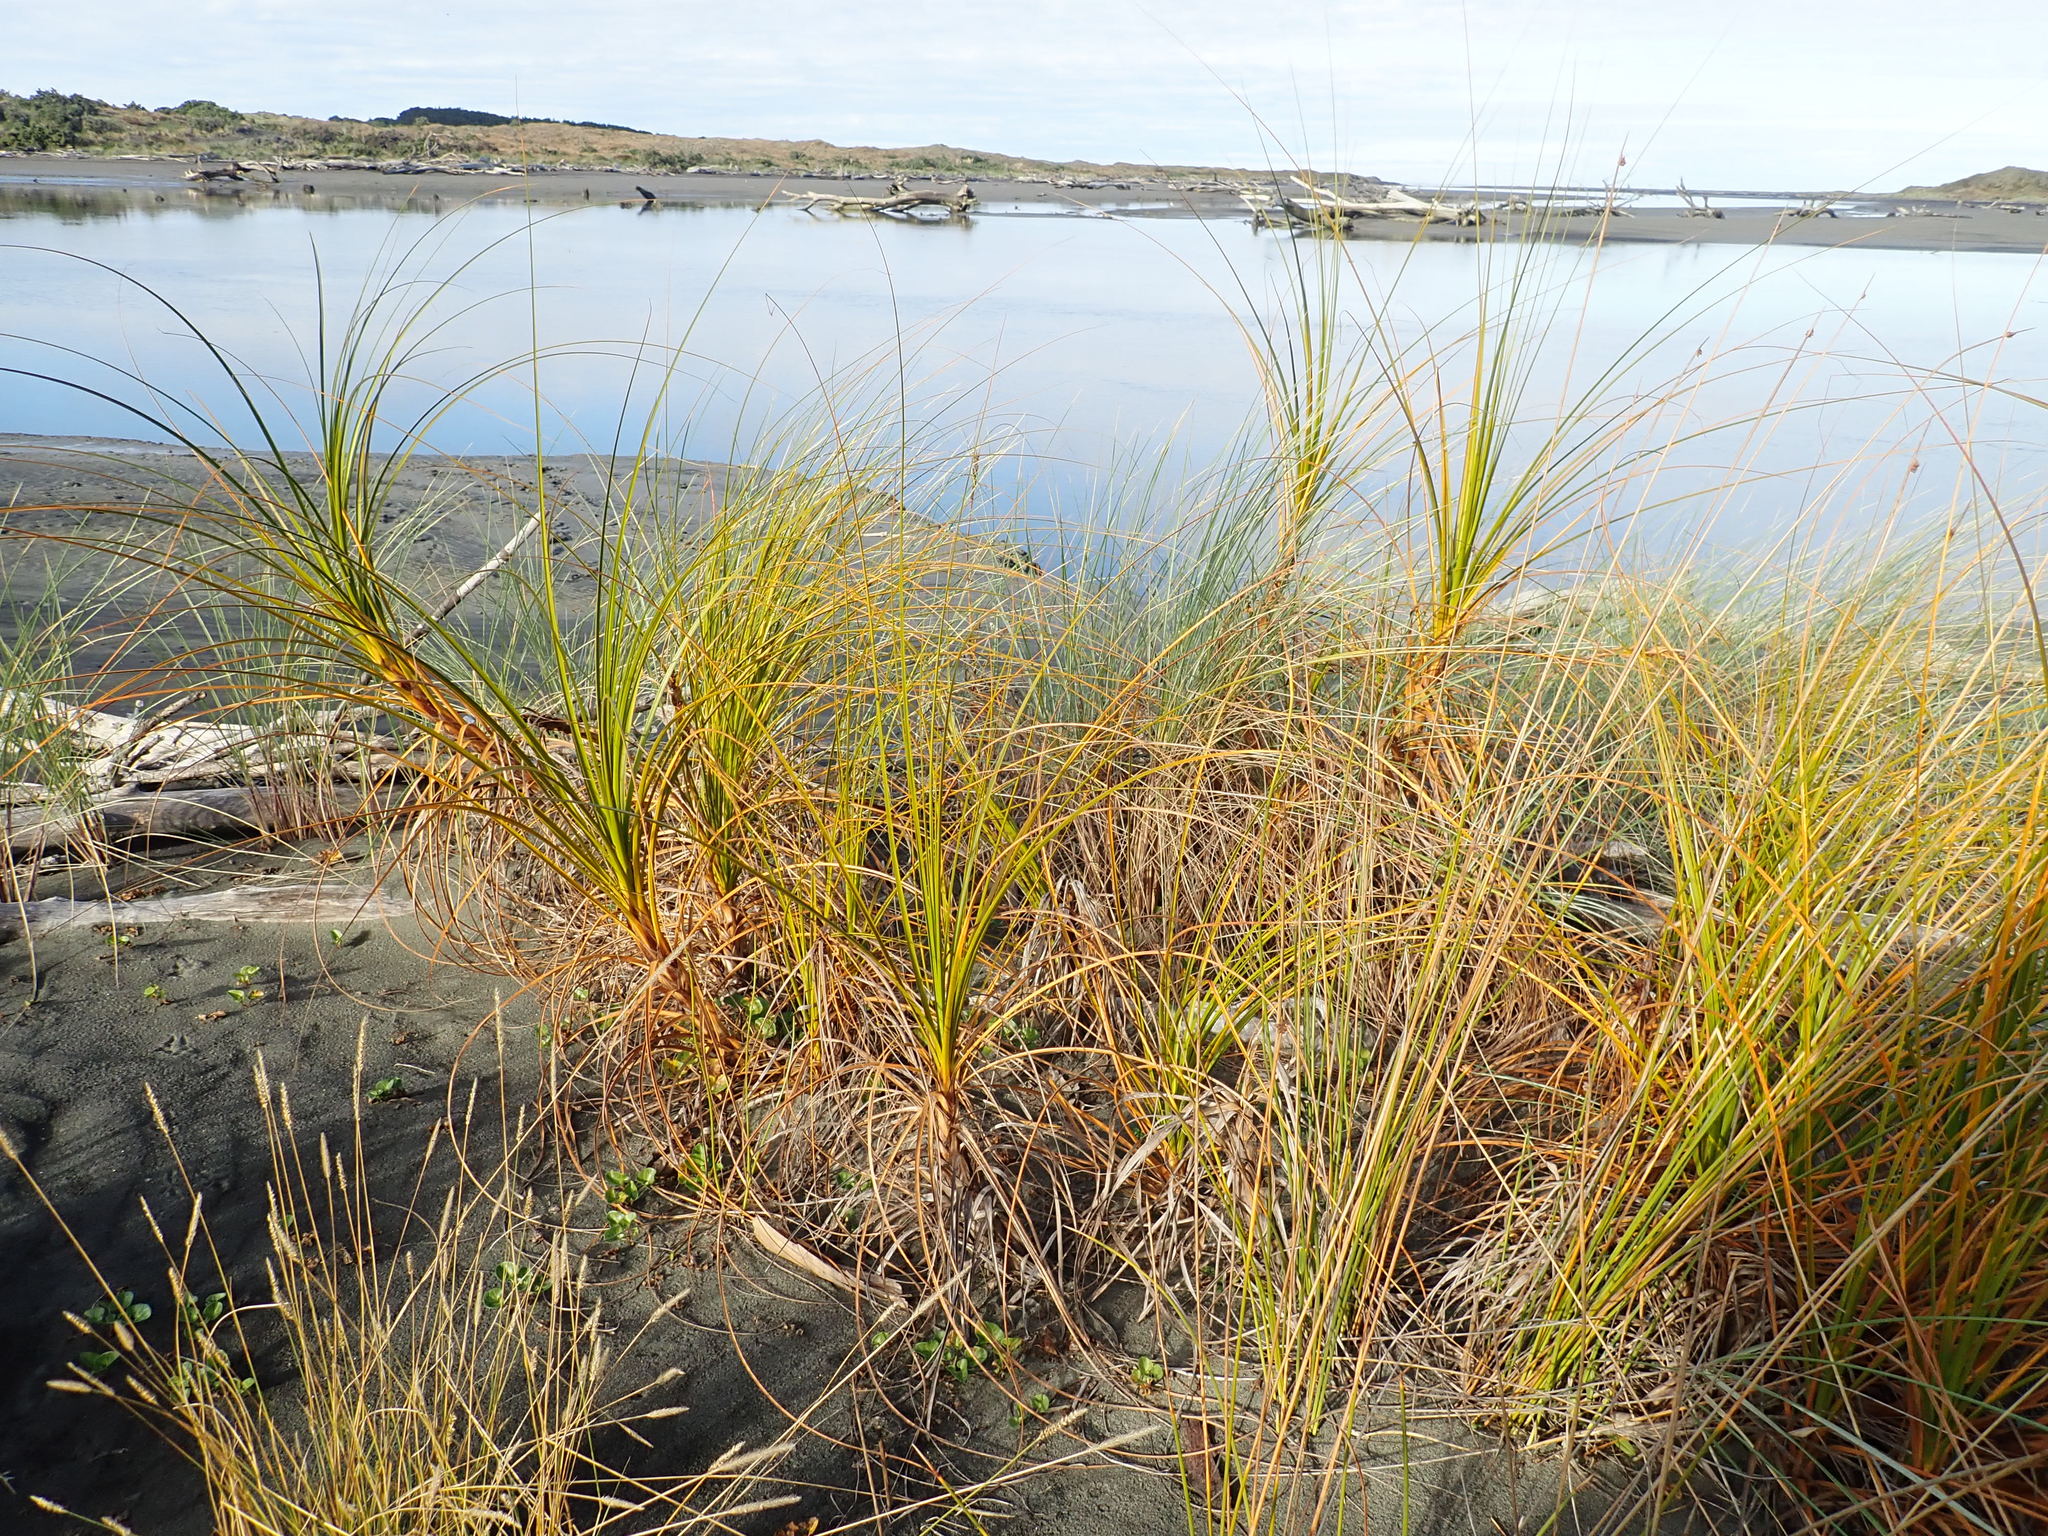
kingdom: Plantae
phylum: Tracheophyta
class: Liliopsida
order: Poales
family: Cyperaceae
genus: Ficinia
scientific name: Ficinia spiralis
